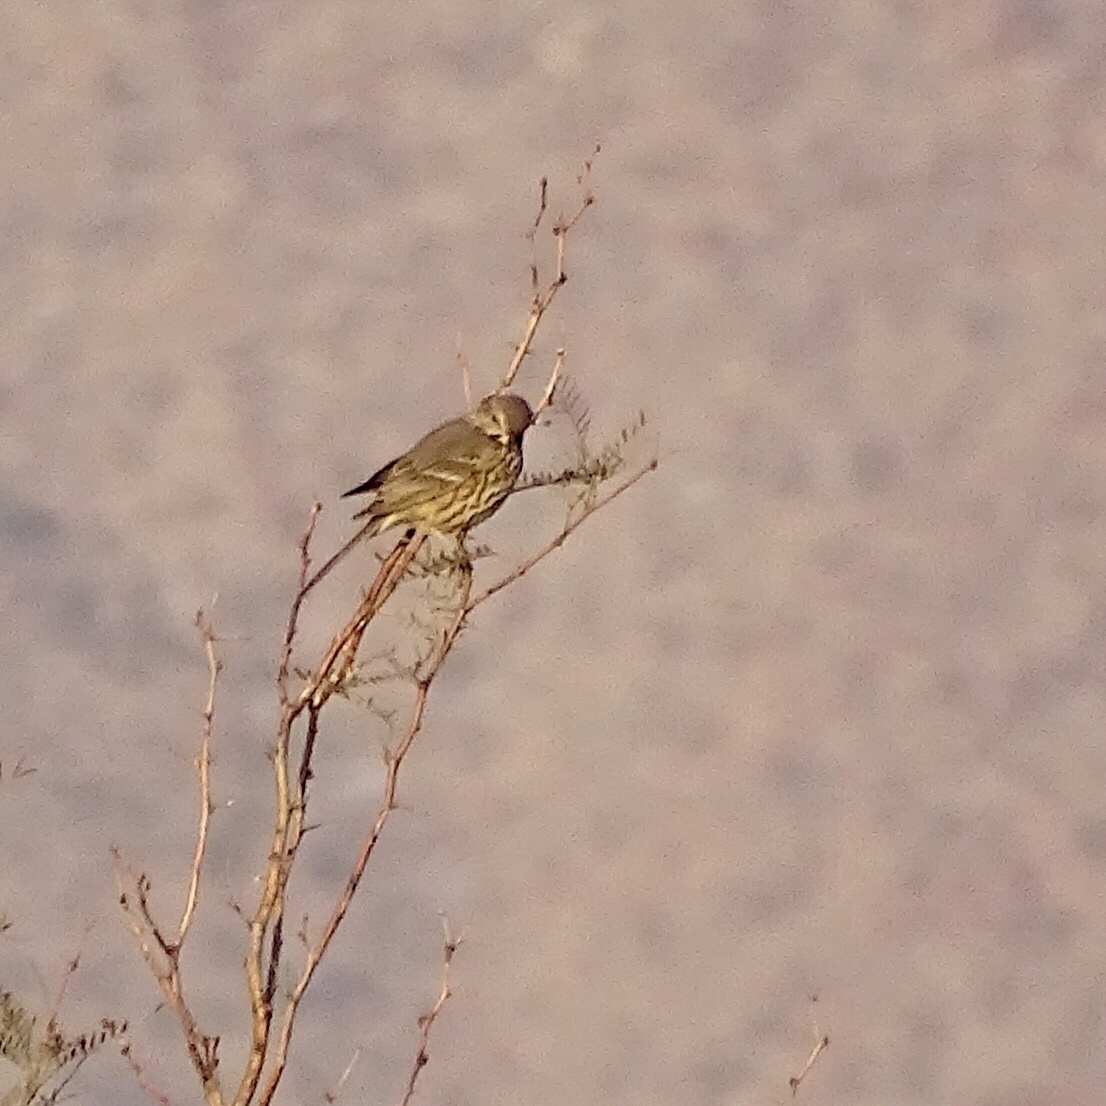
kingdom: Animalia
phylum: Chordata
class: Aves
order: Passeriformes
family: Mimidae
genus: Oreoscoptes
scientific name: Oreoscoptes montanus
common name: Sage thrasher
